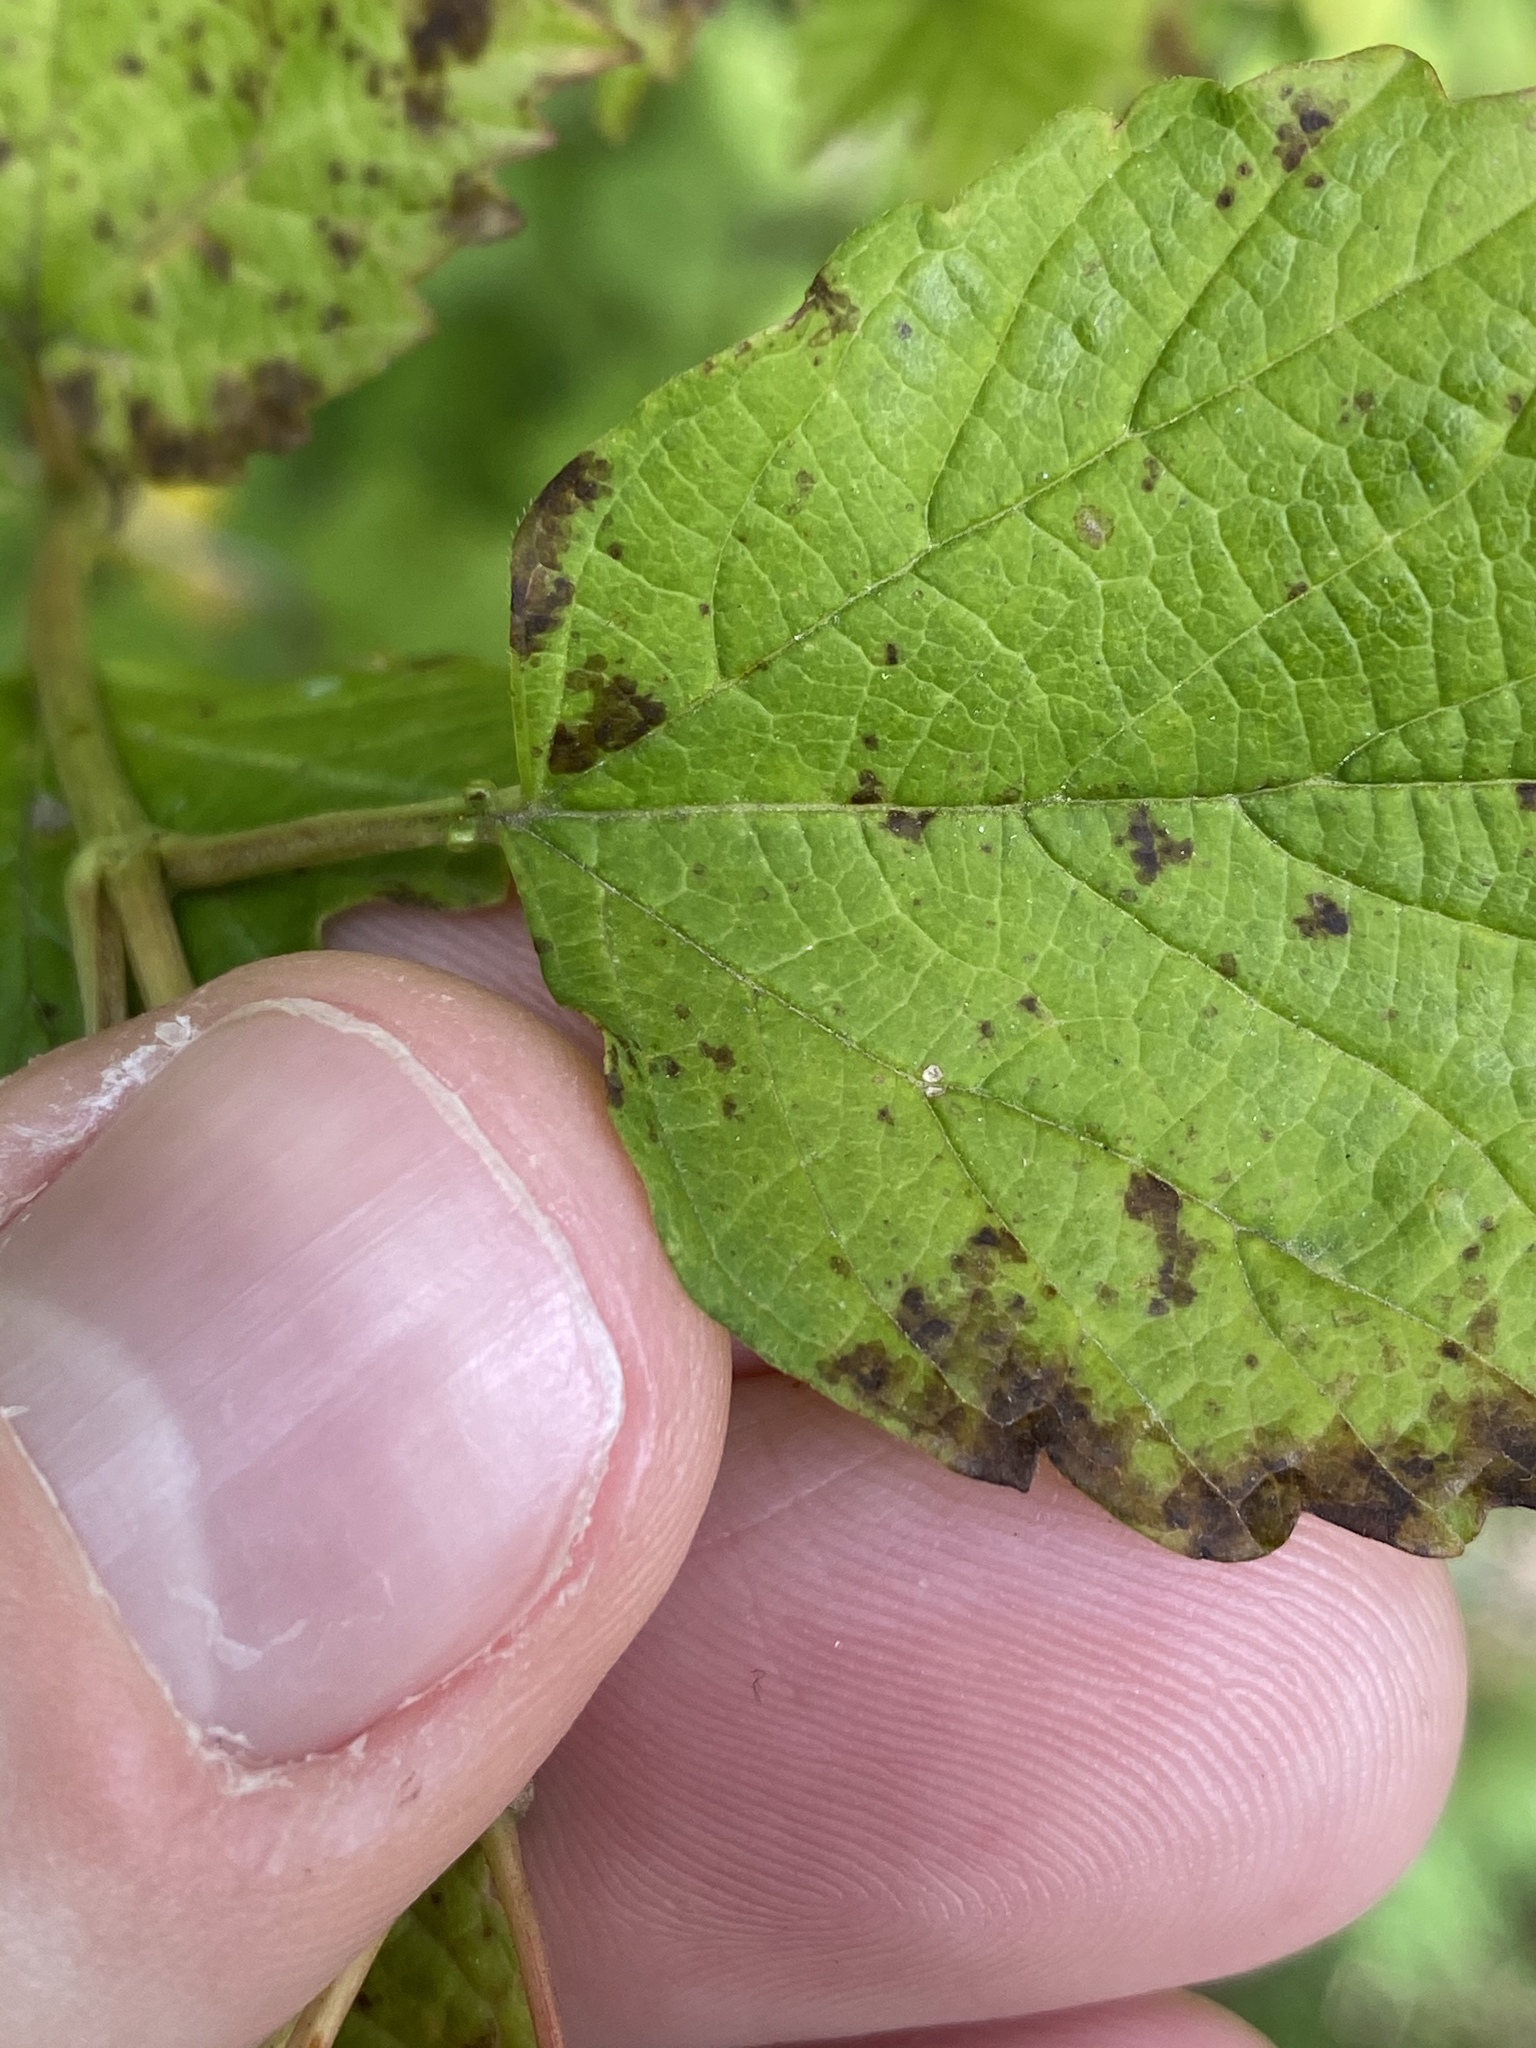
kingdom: Plantae
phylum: Tracheophyta
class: Magnoliopsida
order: Dipsacales
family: Viburnaceae
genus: Viburnum
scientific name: Viburnum opulus
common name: Guelder-rose
